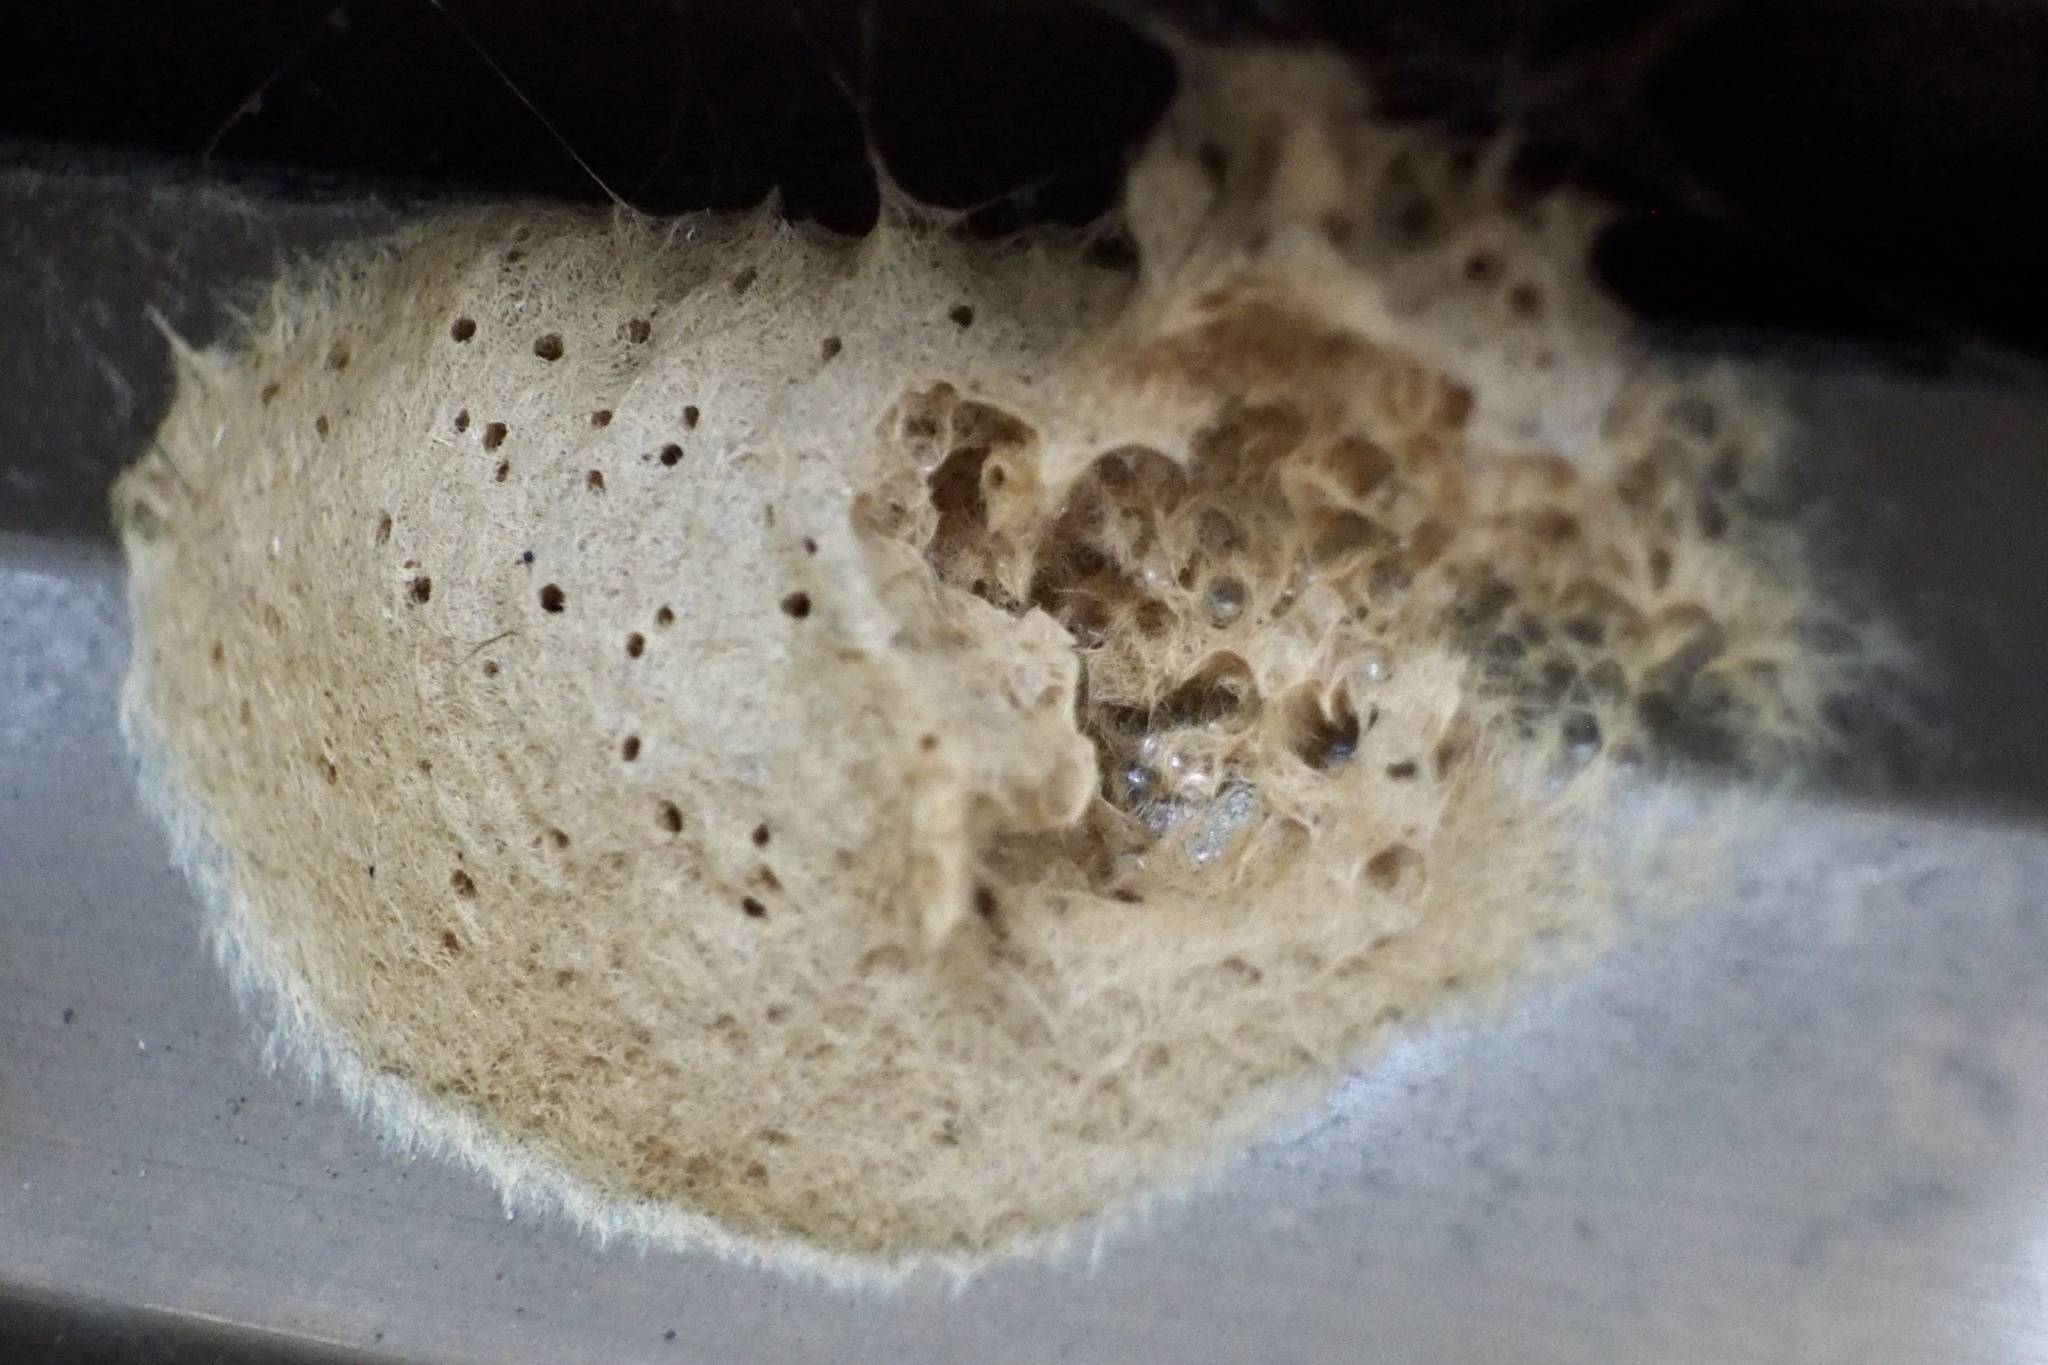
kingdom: Animalia
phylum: Arthropoda
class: Insecta
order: Lepidoptera
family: Erebidae
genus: Lymantria
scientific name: Lymantria dispar
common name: Gypsy moth
